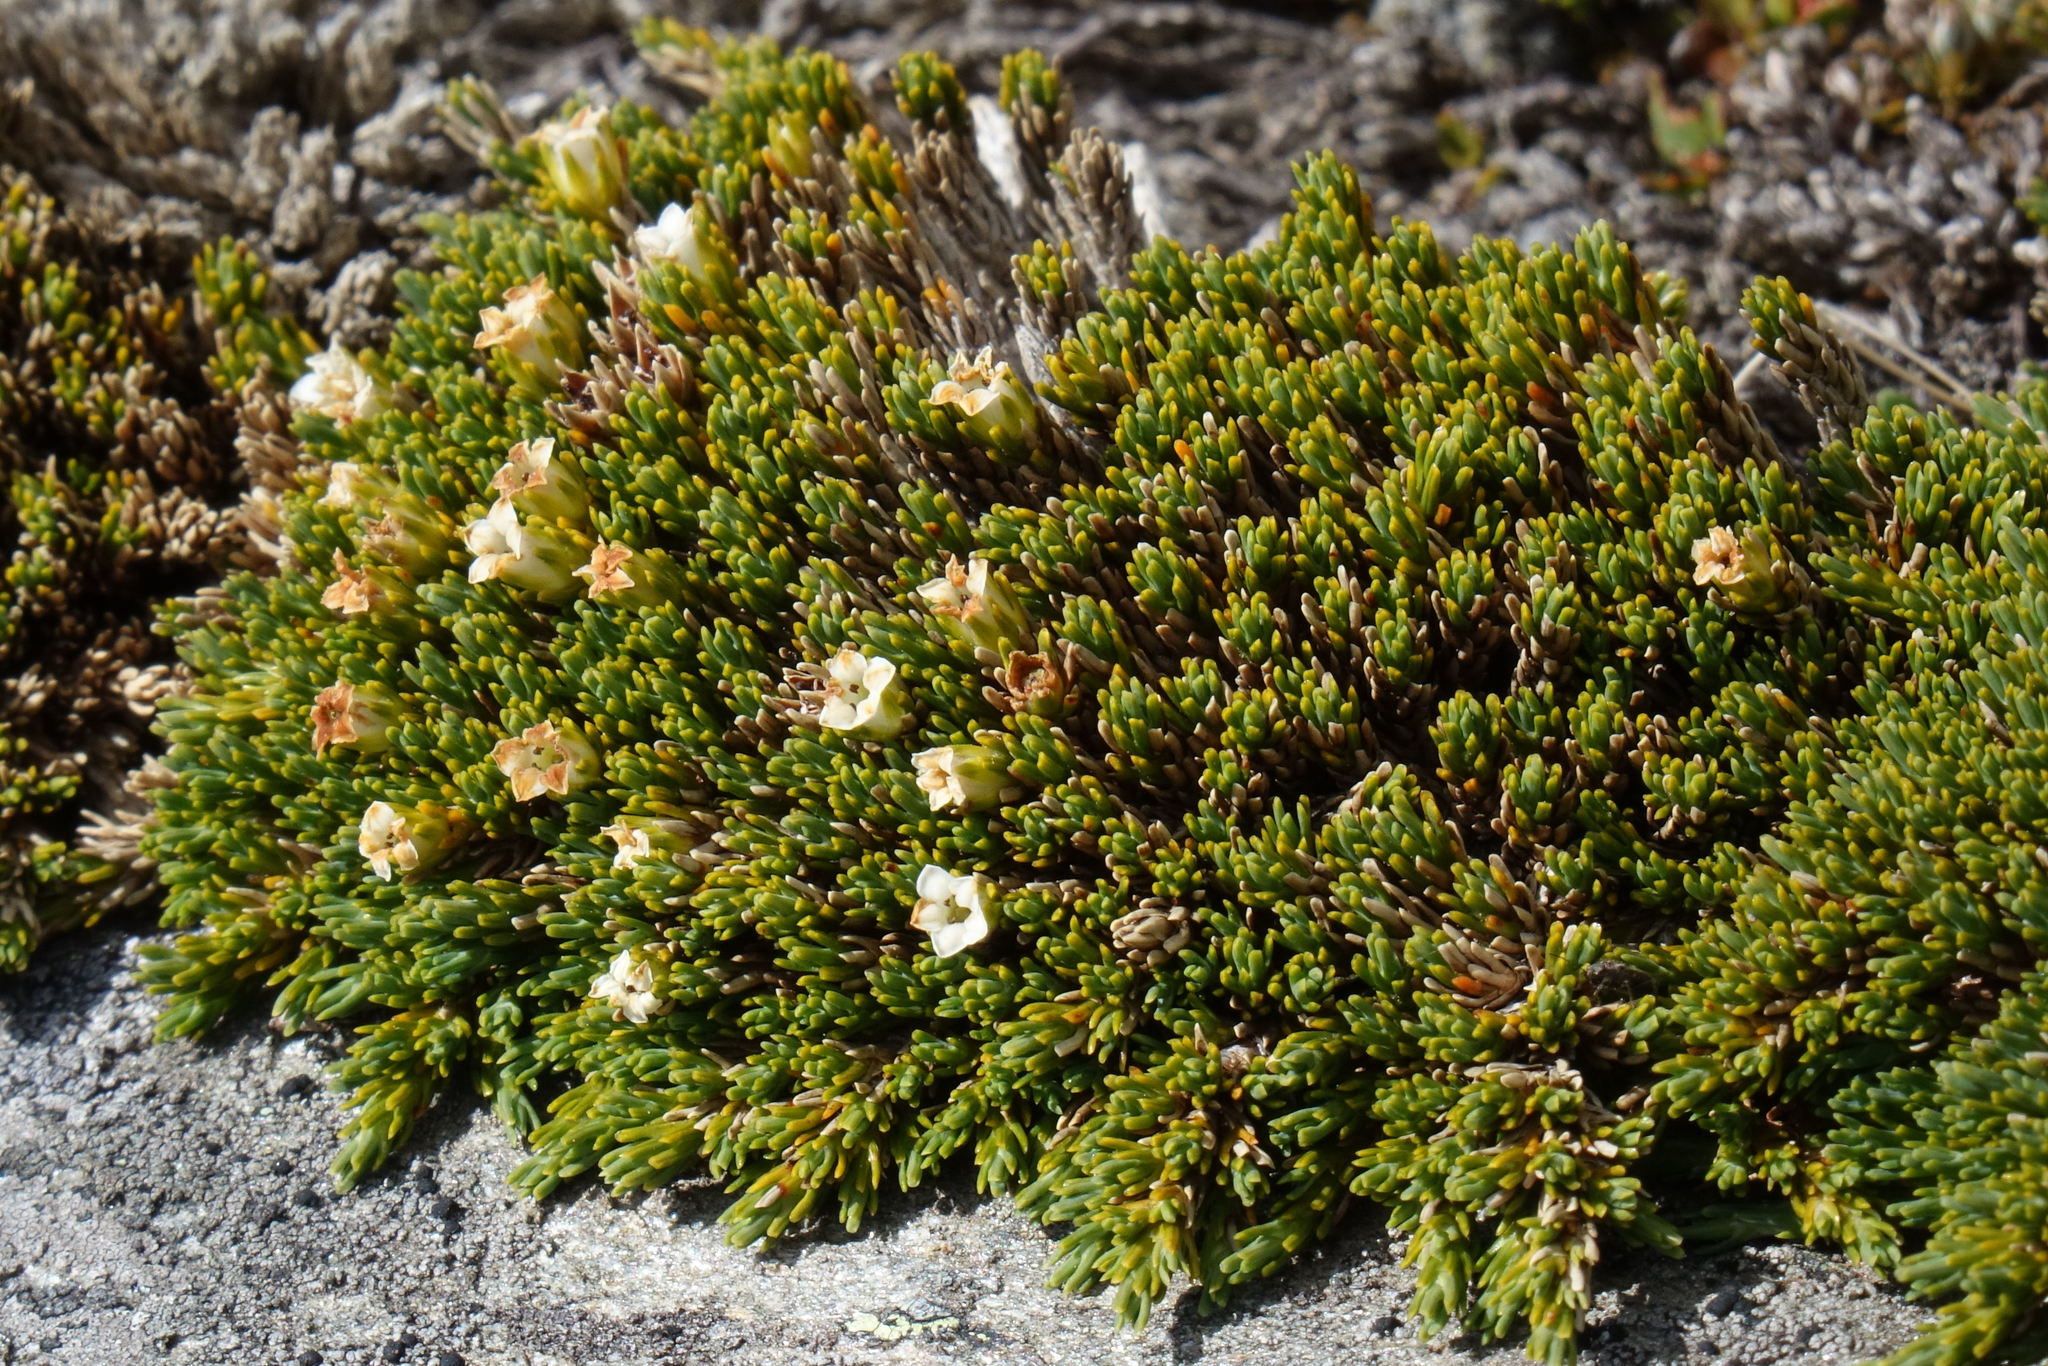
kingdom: Plantae
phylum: Tracheophyta
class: Magnoliopsida
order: Ericales
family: Ericaceae
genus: Dracophyllum
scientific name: Dracophyllum muscoides
